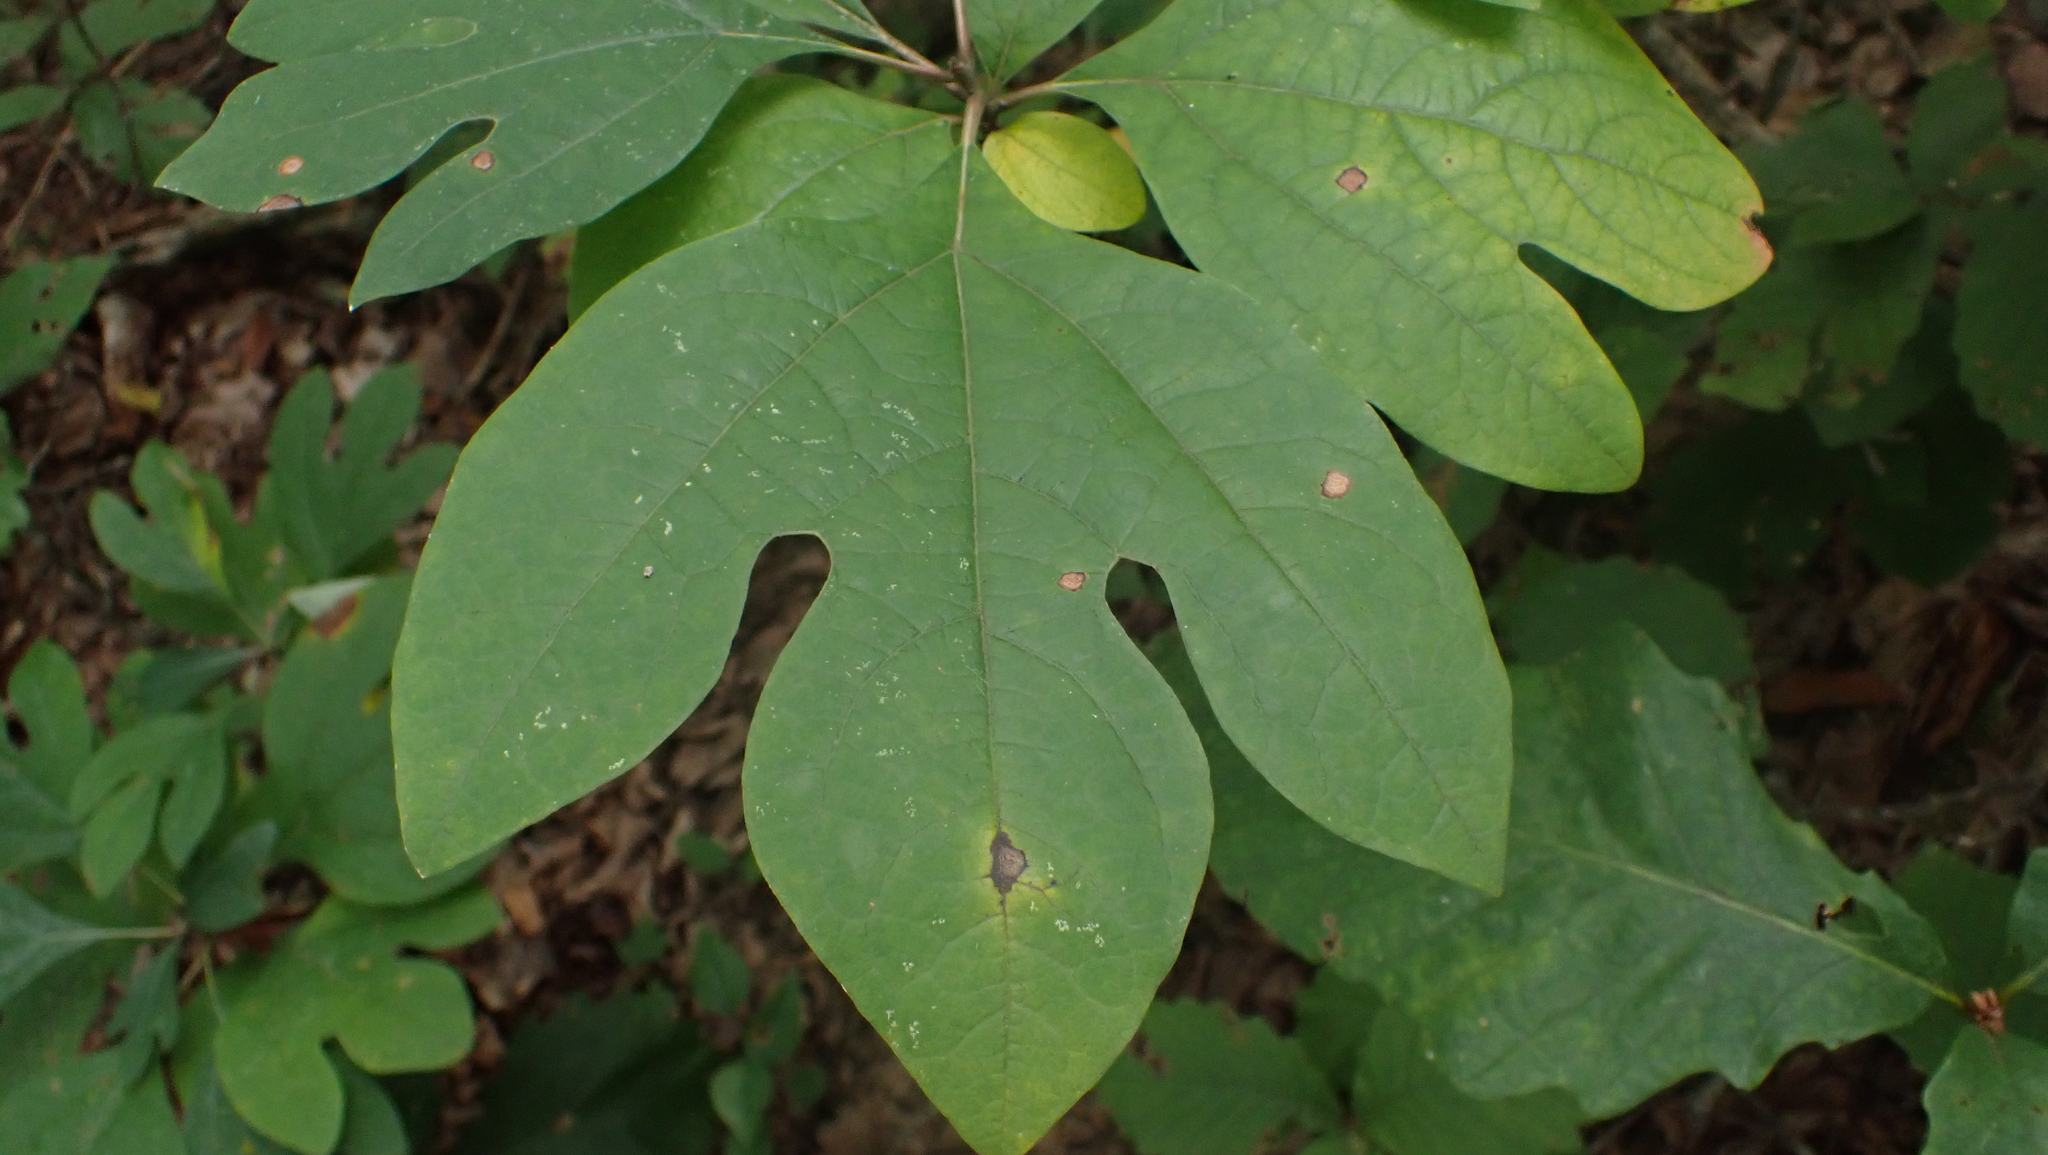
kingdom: Plantae
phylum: Tracheophyta
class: Magnoliopsida
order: Laurales
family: Lauraceae
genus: Sassafras
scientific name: Sassafras albidum
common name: Sassafras
